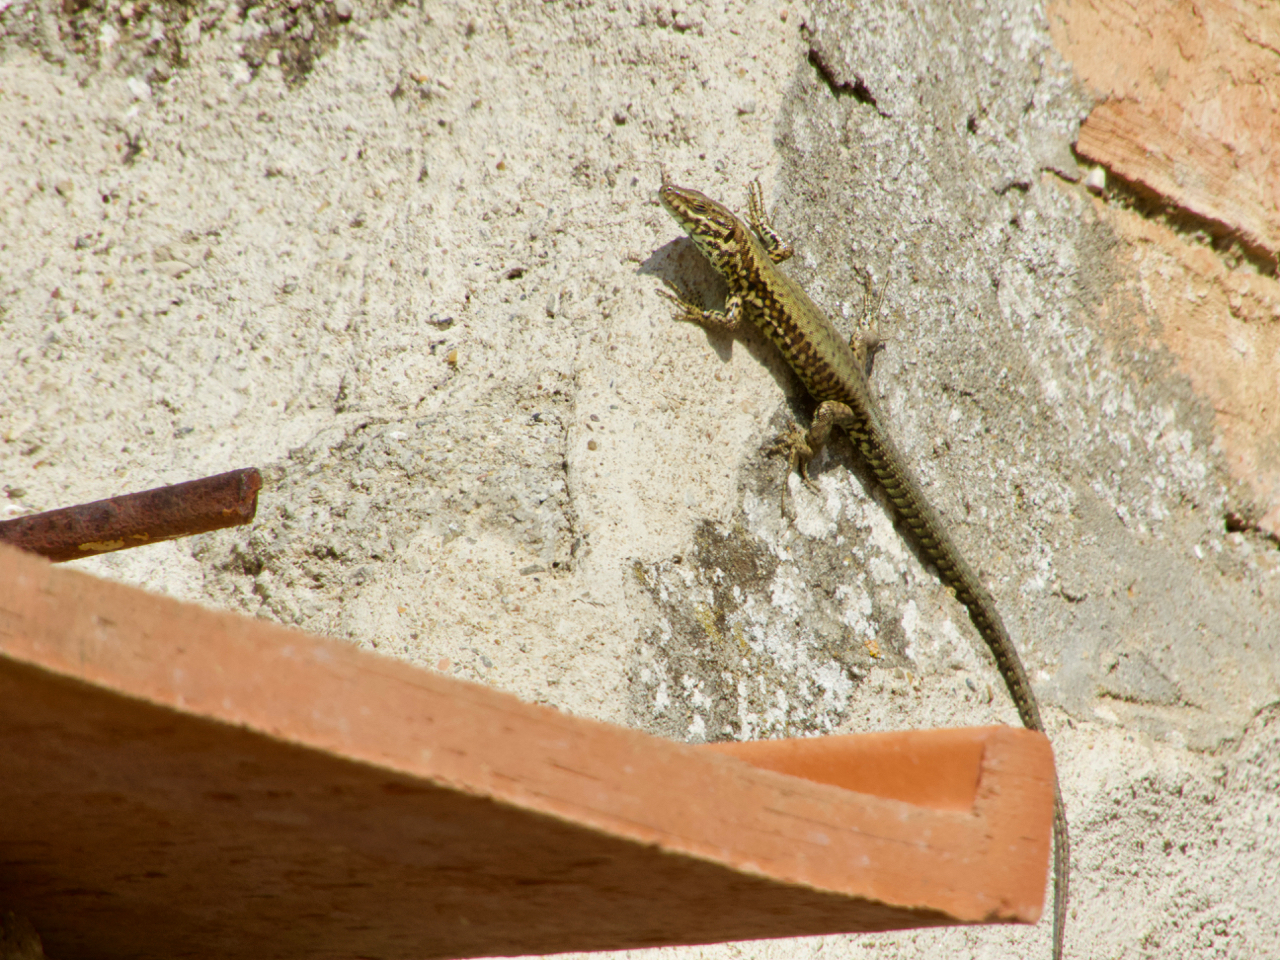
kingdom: Animalia
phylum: Chordata
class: Squamata
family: Lacertidae
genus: Podarcis
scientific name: Podarcis muralis
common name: Common wall lizard
